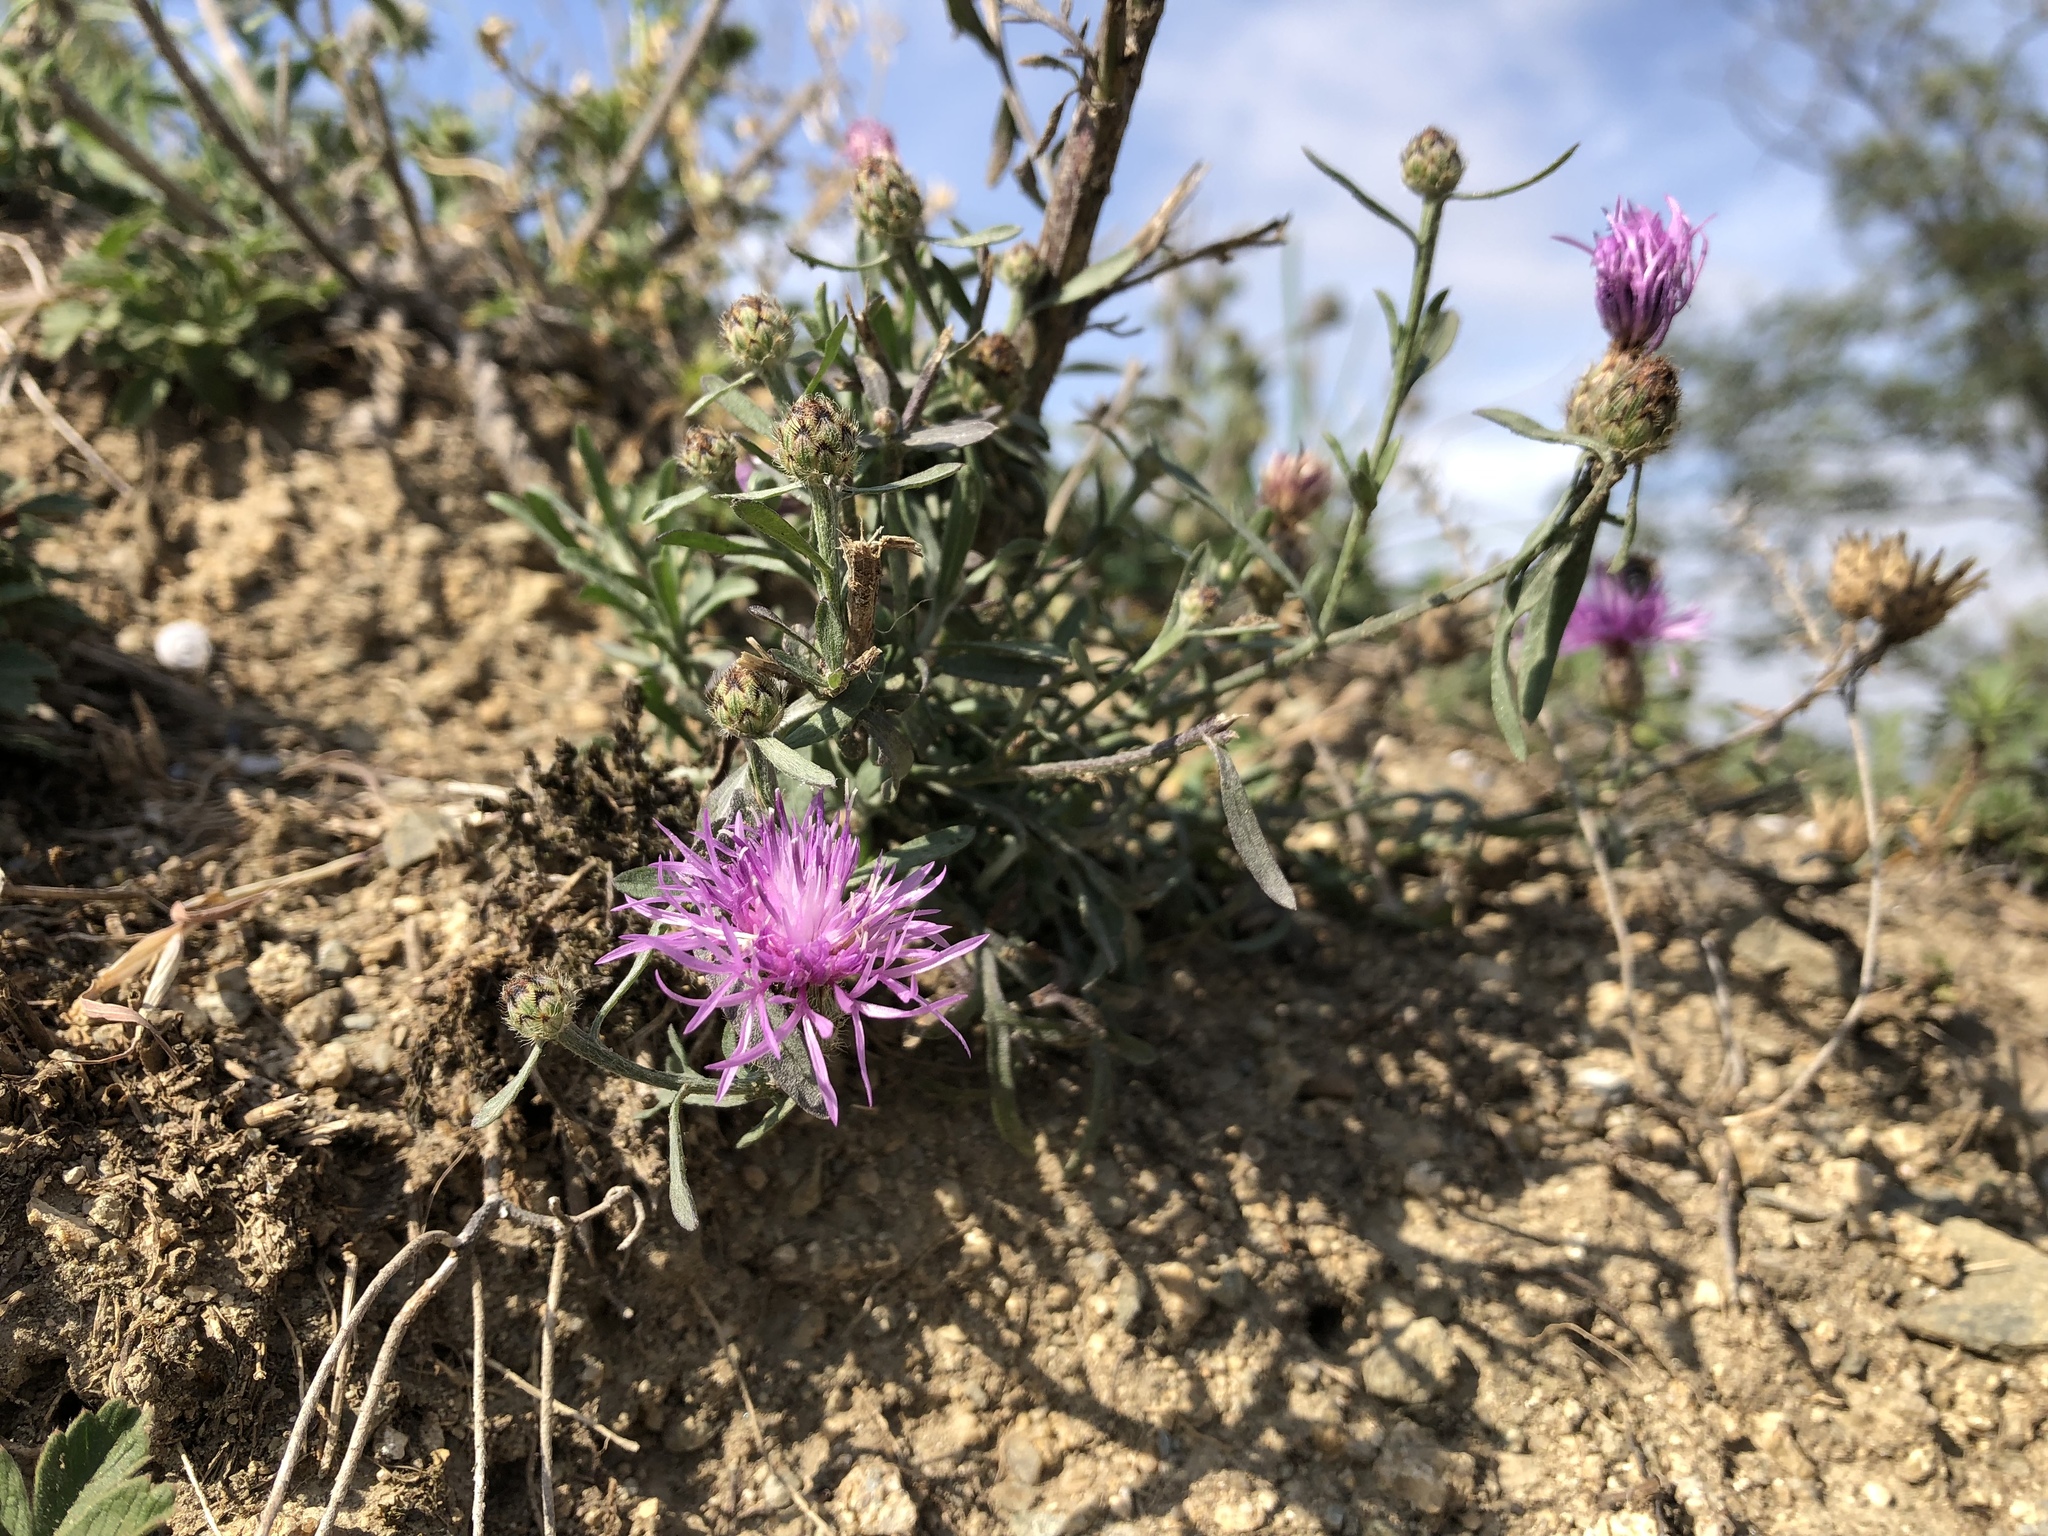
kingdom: Plantae
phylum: Tracheophyta
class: Magnoliopsida
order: Asterales
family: Asteraceae
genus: Centaurea
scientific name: Centaurea stoebe
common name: Spotted knapweed
